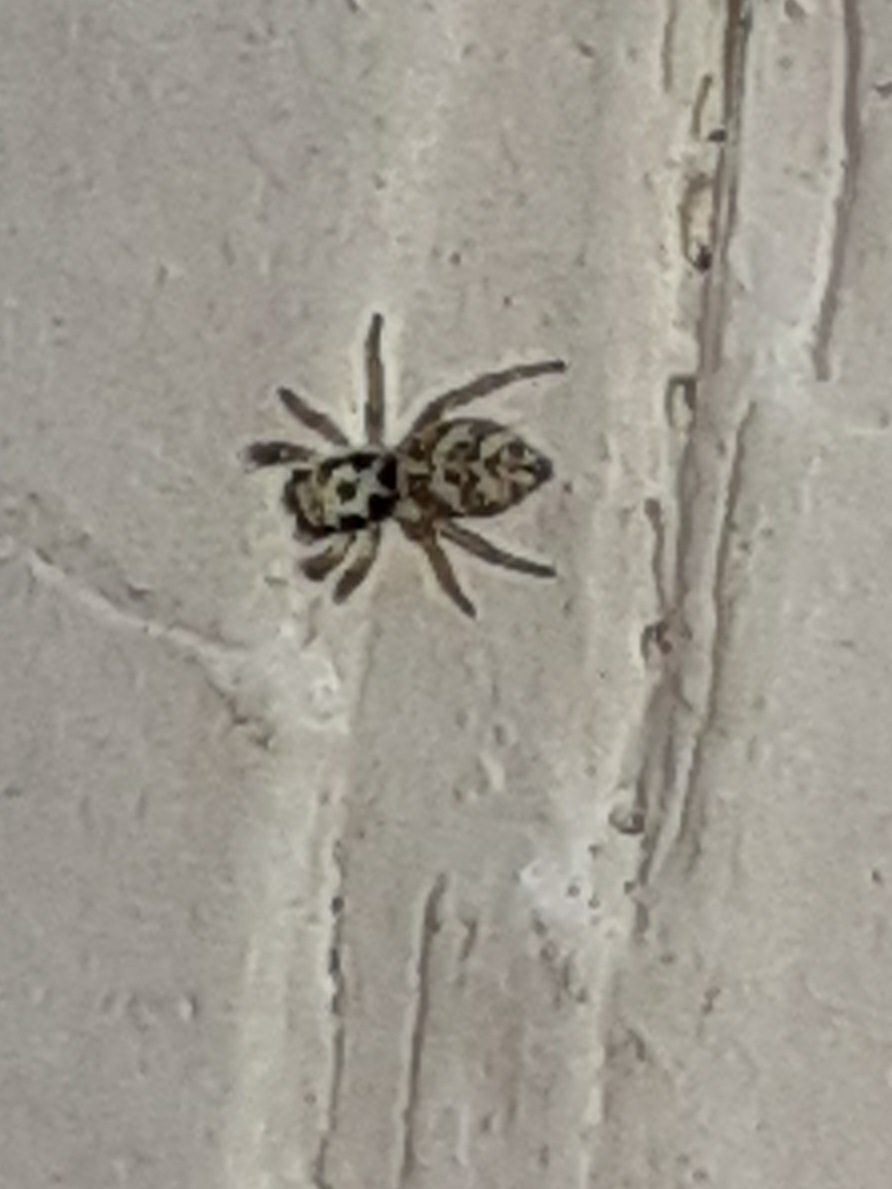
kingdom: Animalia
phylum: Arthropoda
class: Arachnida
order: Araneae
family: Salticidae
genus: Salticus
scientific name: Salticus scenicus
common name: Zebra jumper
